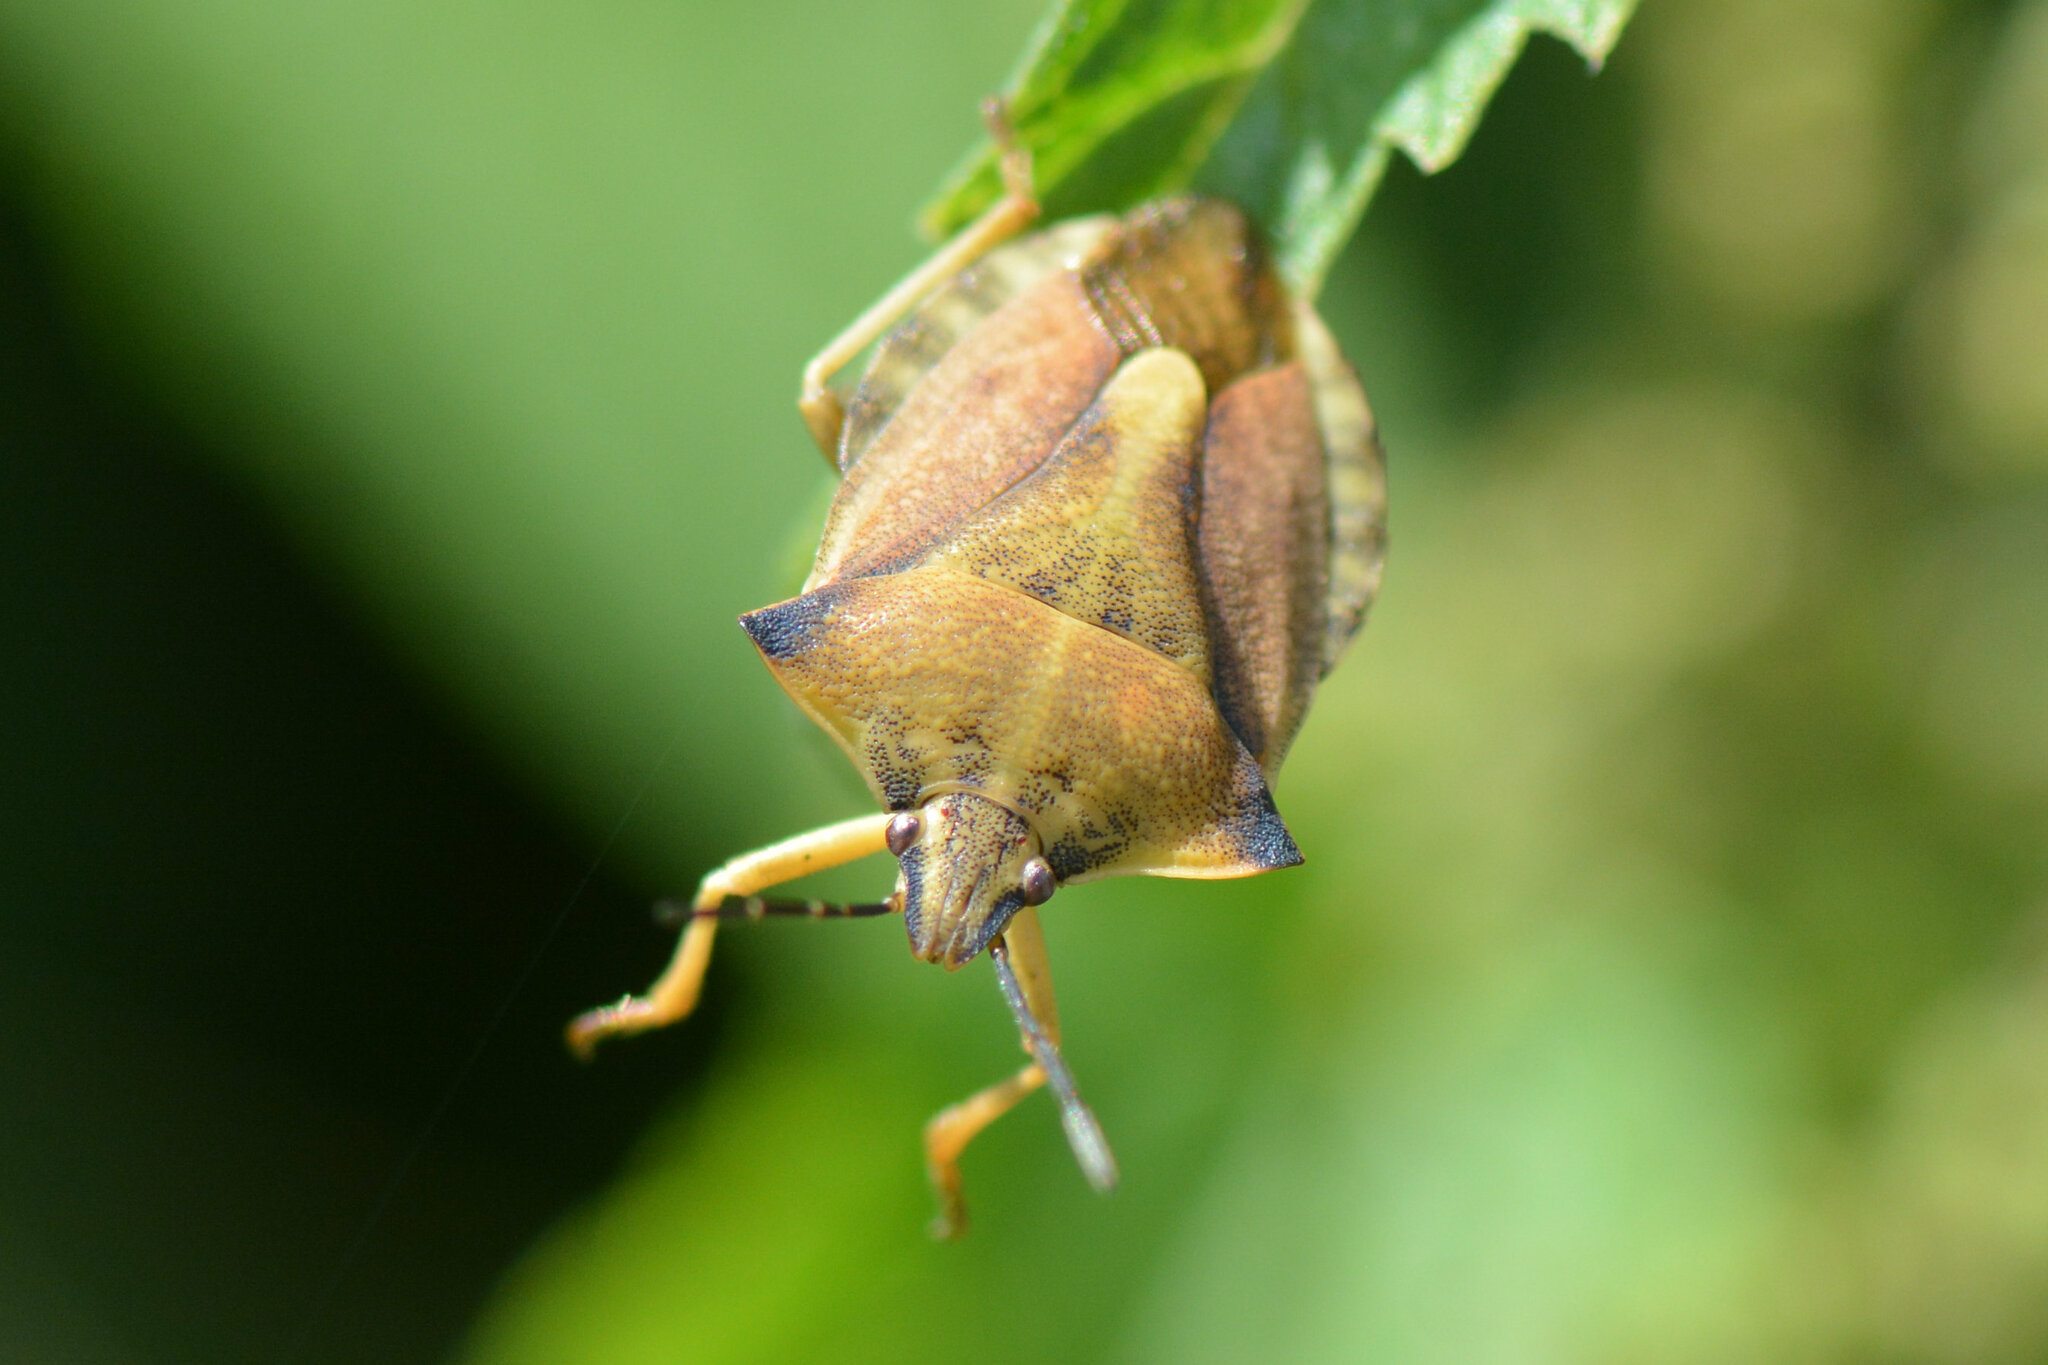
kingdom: Animalia
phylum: Arthropoda
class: Insecta
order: Hemiptera
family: Pentatomidae
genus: Carpocoris
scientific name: Carpocoris fuscispinus
